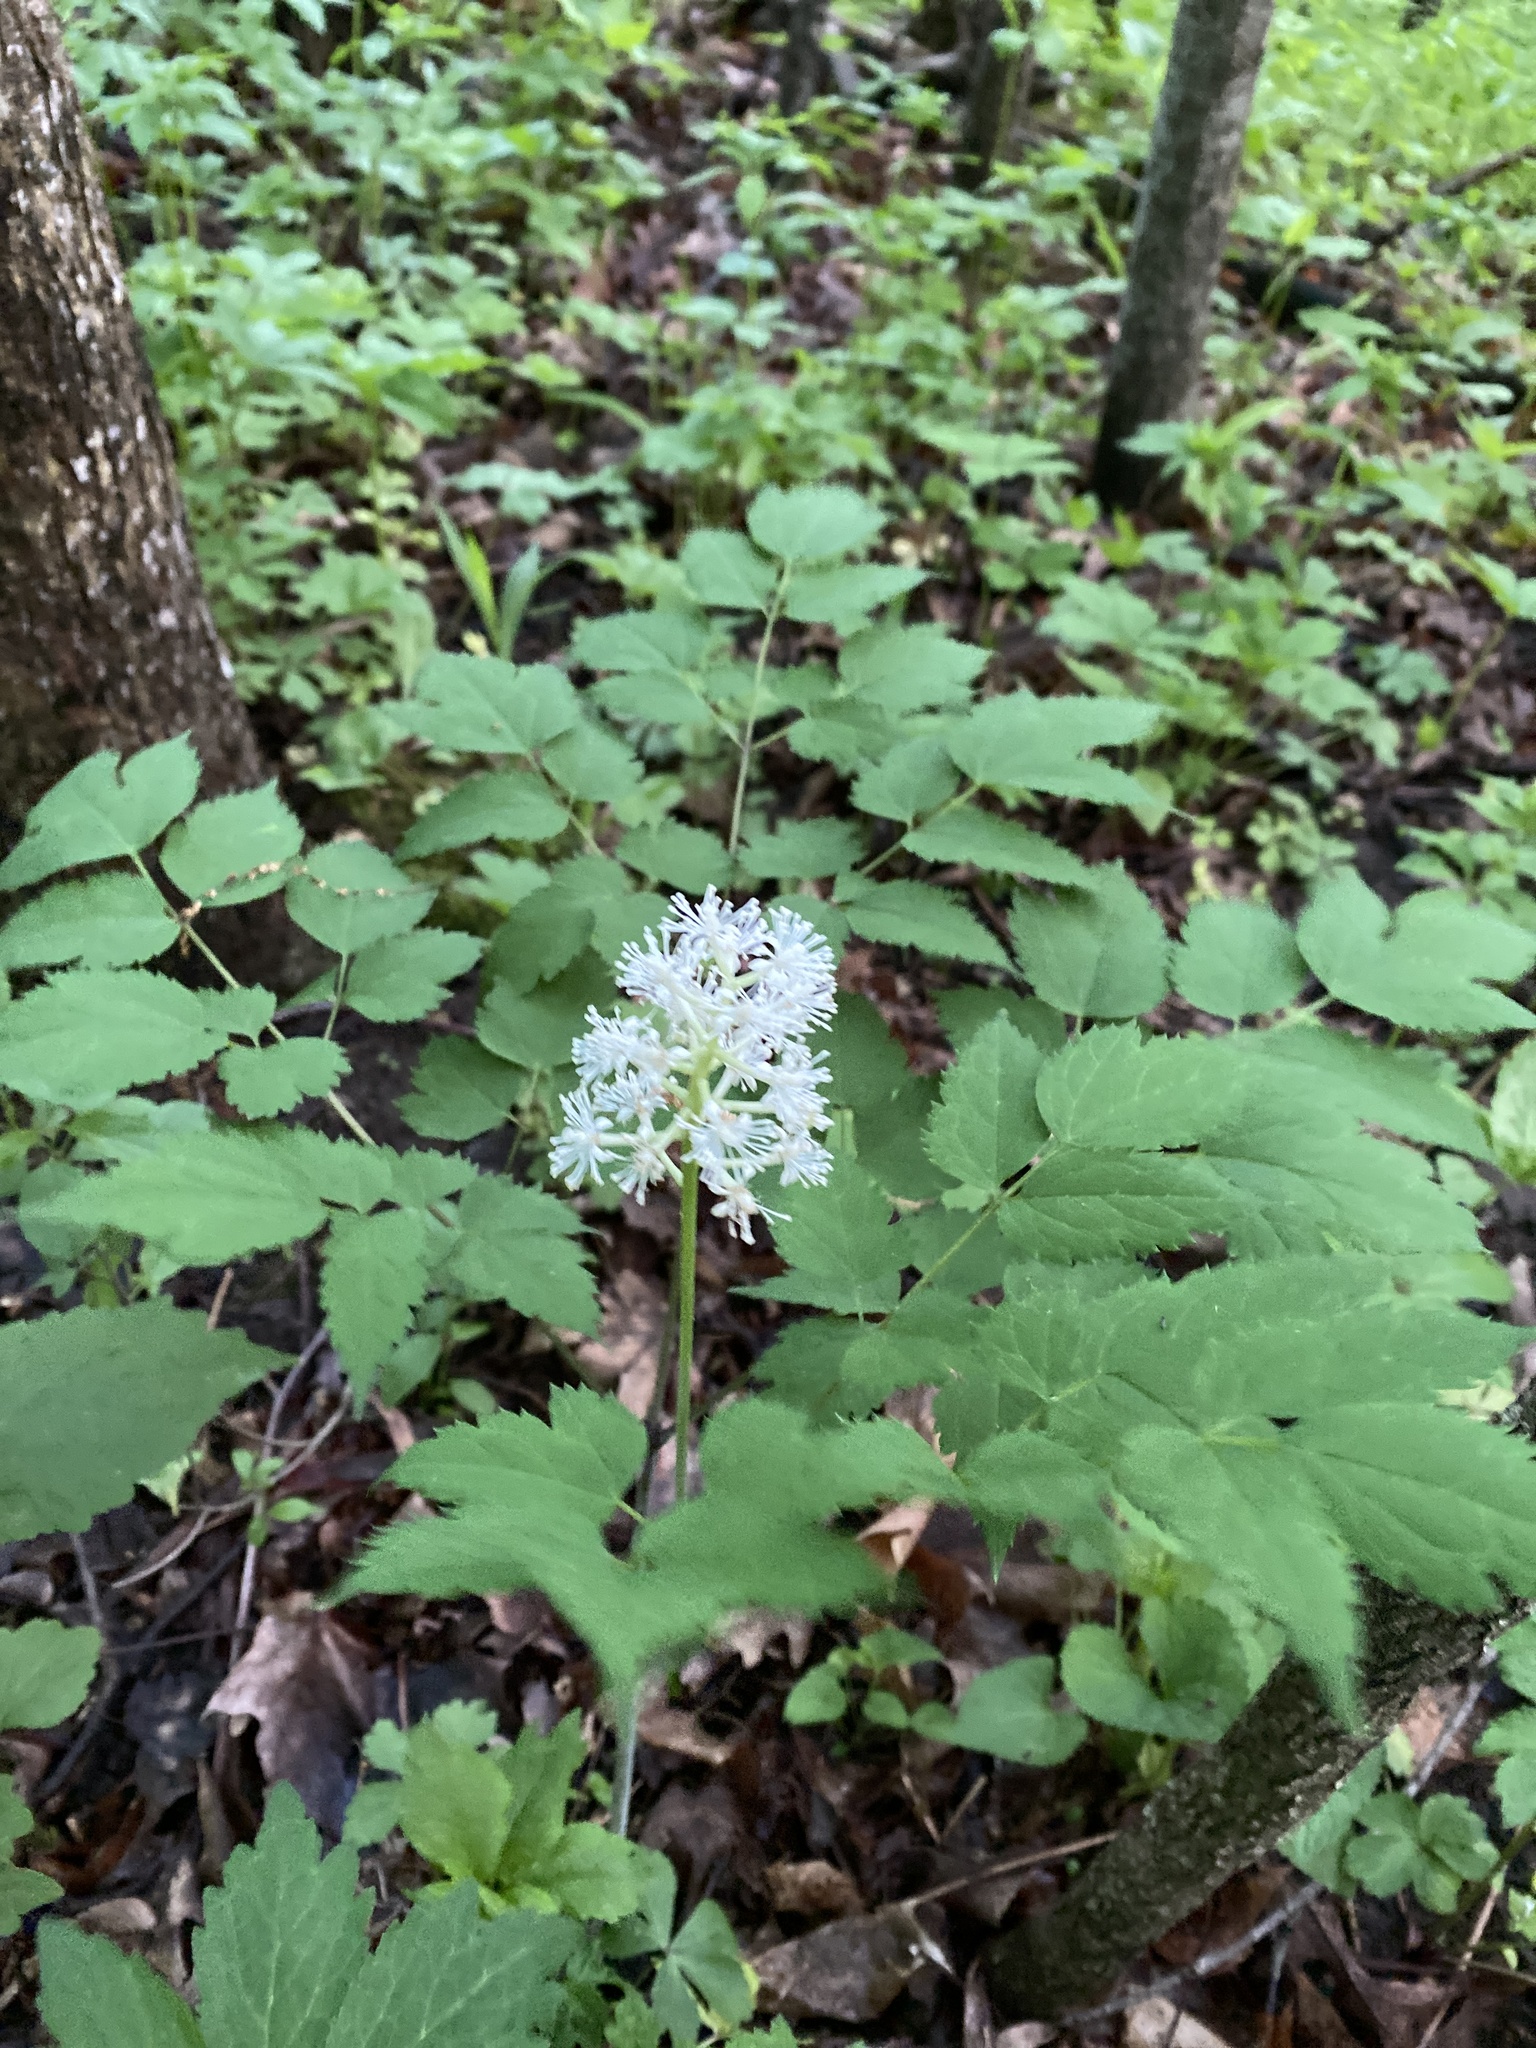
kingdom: Plantae
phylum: Tracheophyta
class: Magnoliopsida
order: Ranunculales
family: Ranunculaceae
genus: Actaea
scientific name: Actaea pachypoda
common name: Doll's-eyes
